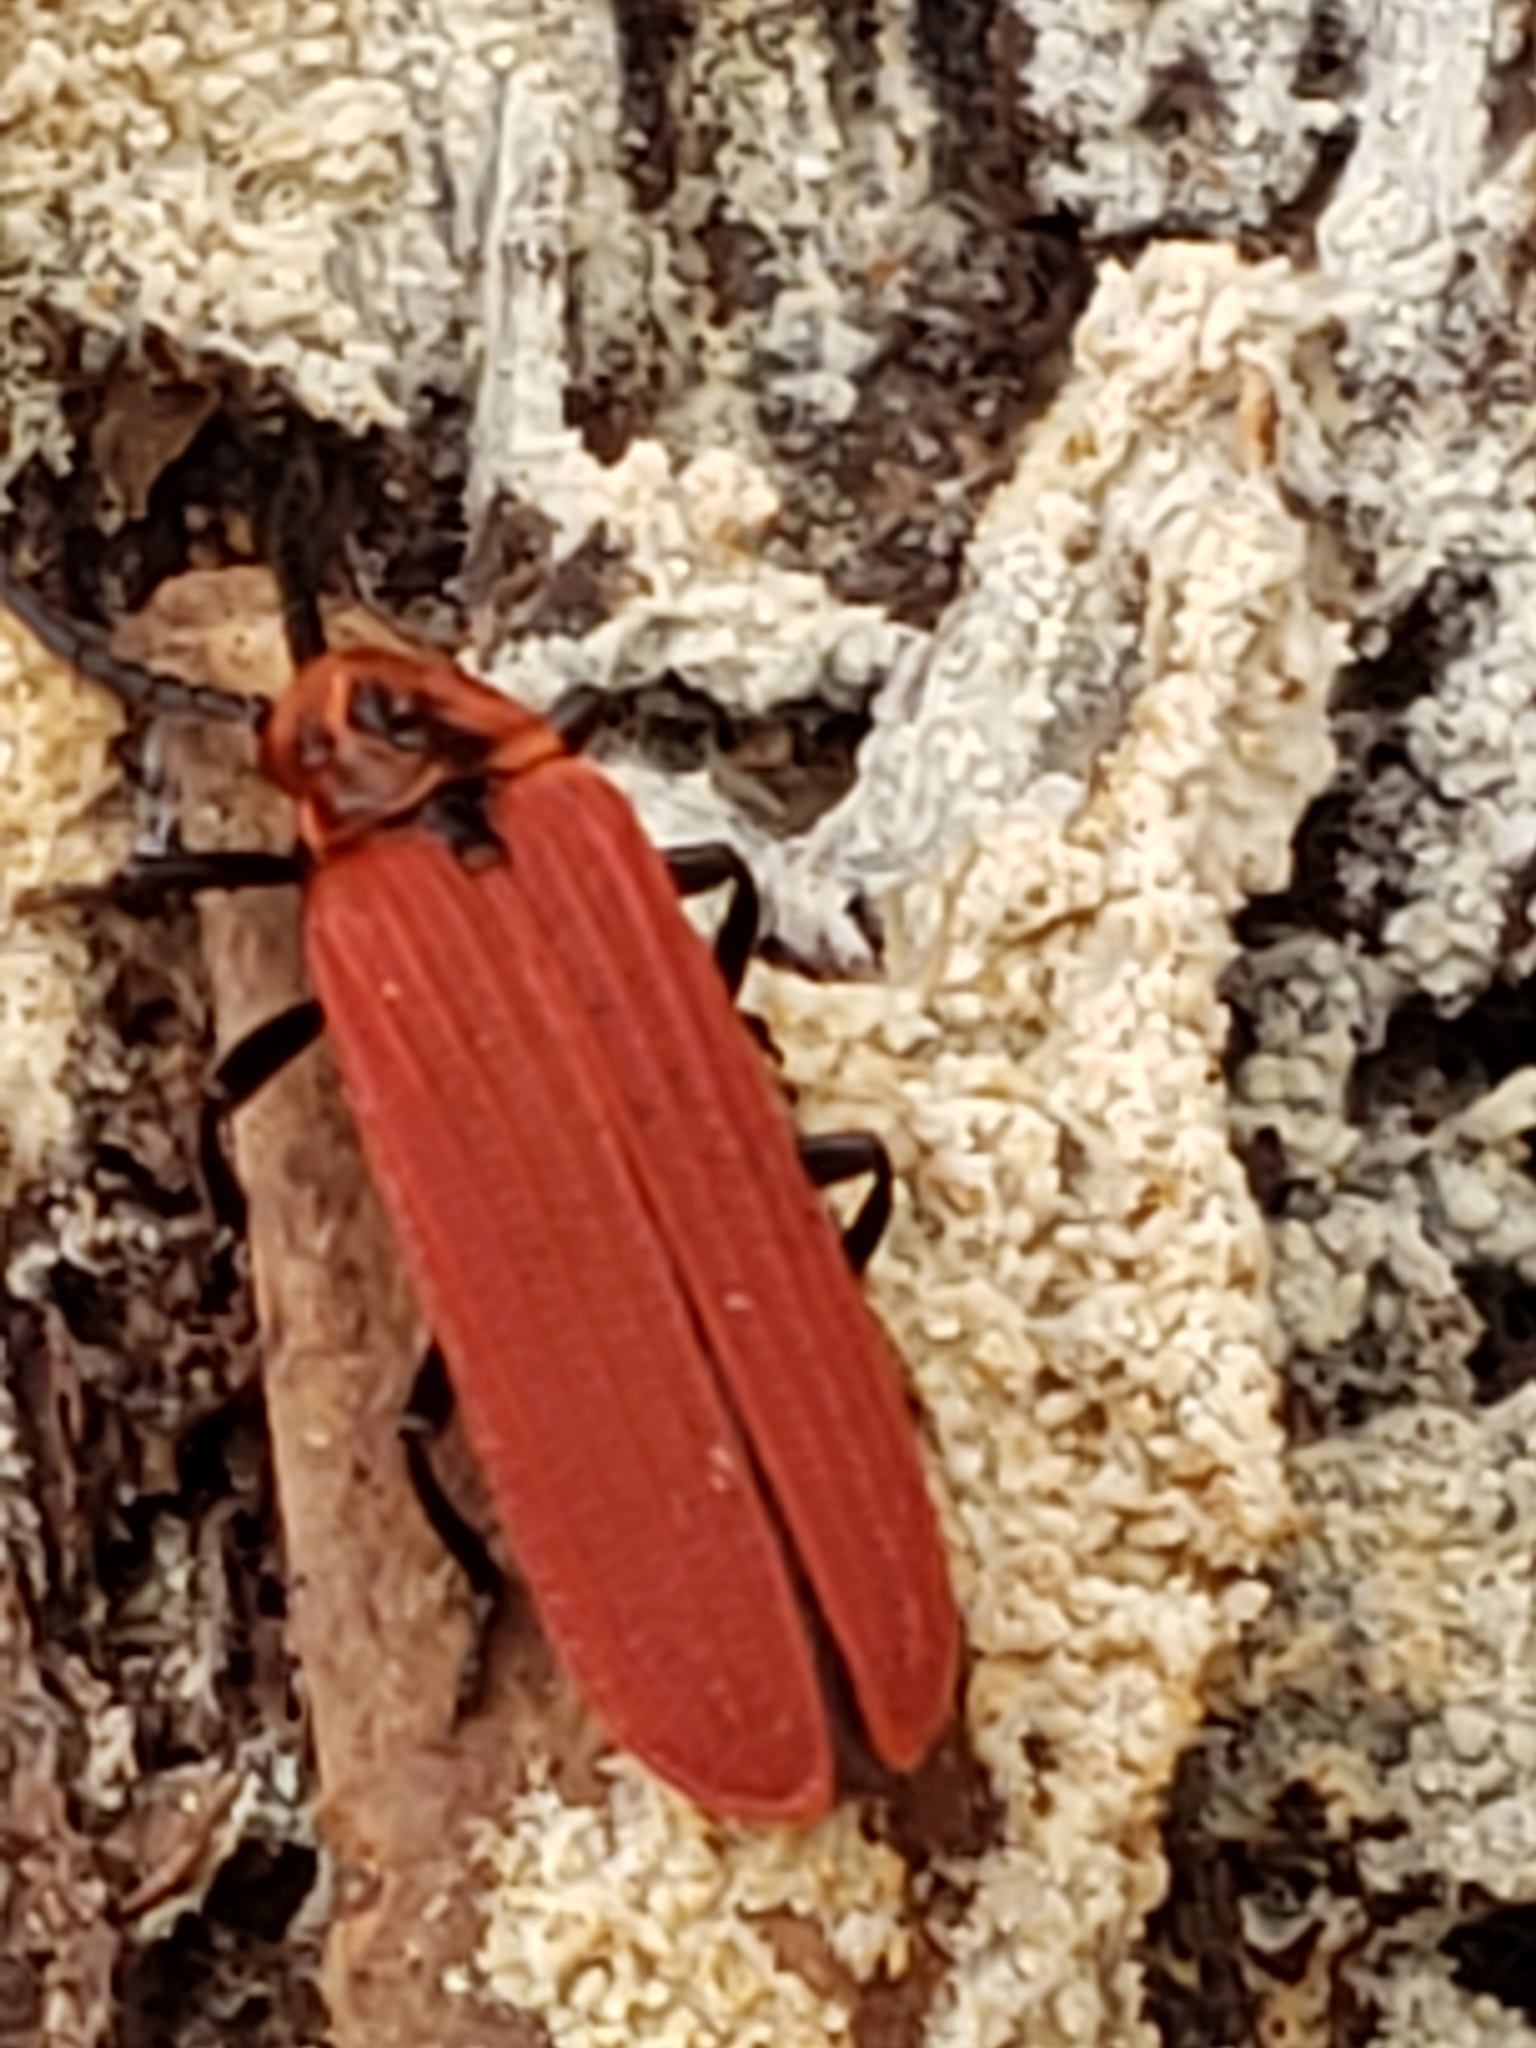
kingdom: Animalia
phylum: Arthropoda
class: Insecta
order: Coleoptera
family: Lycidae
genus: Dictyoptera
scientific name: Dictyoptera aurora
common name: Golden net-winged beetle
